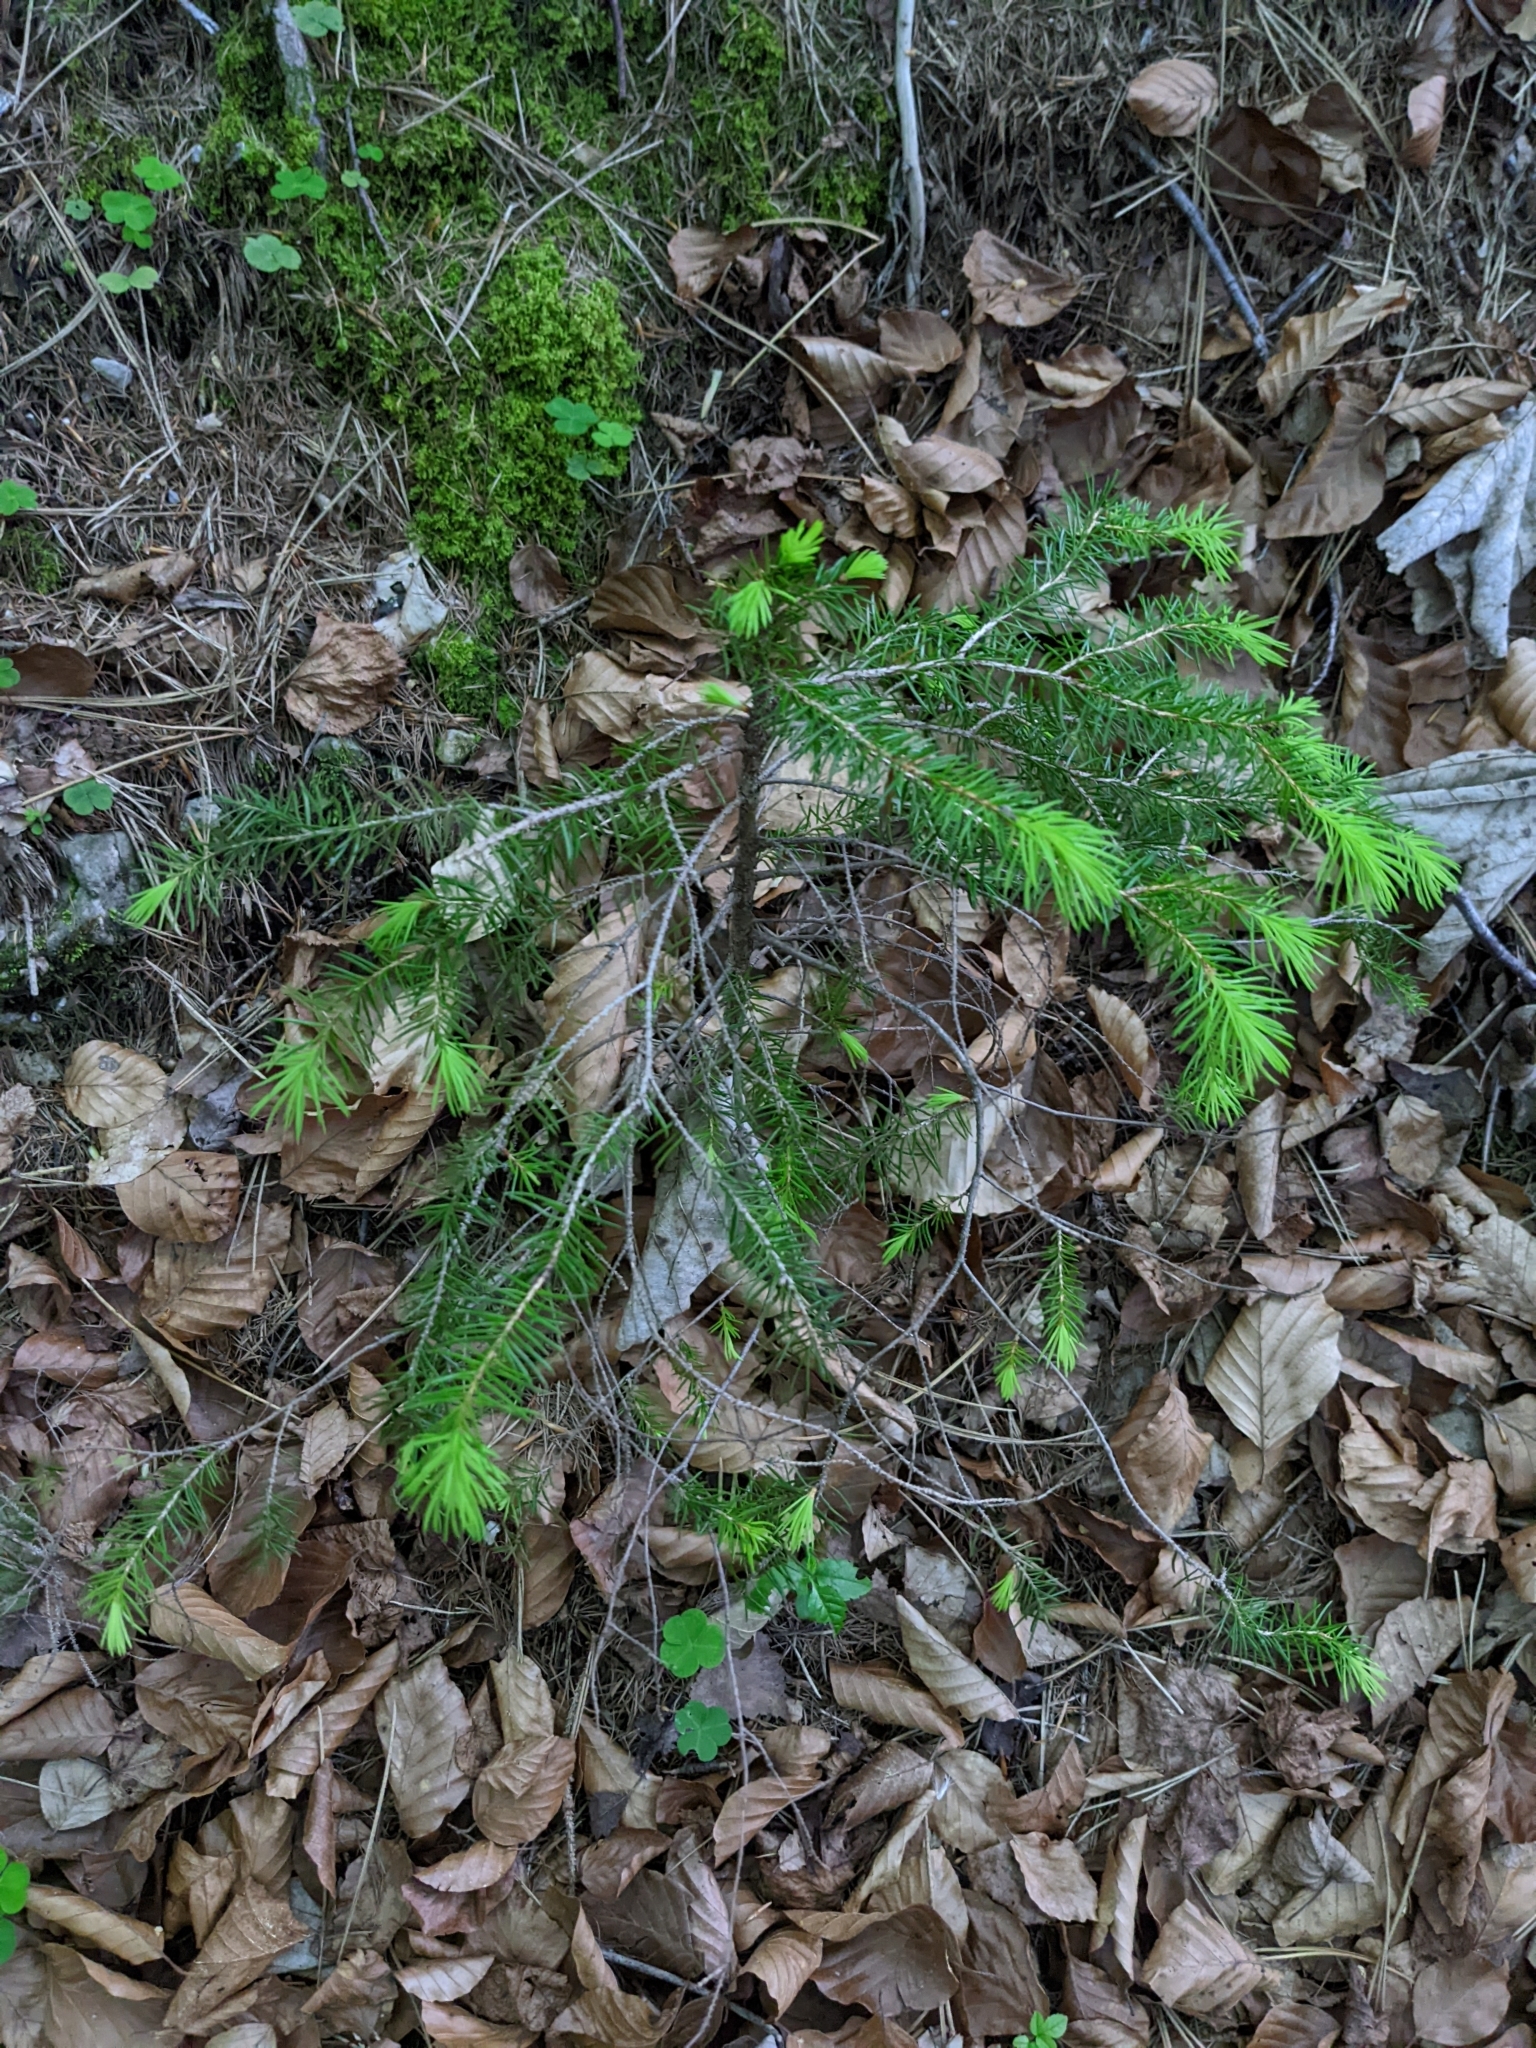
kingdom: Plantae
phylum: Tracheophyta
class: Pinopsida
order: Pinales
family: Pinaceae
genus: Picea
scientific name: Picea abies
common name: Norway spruce
